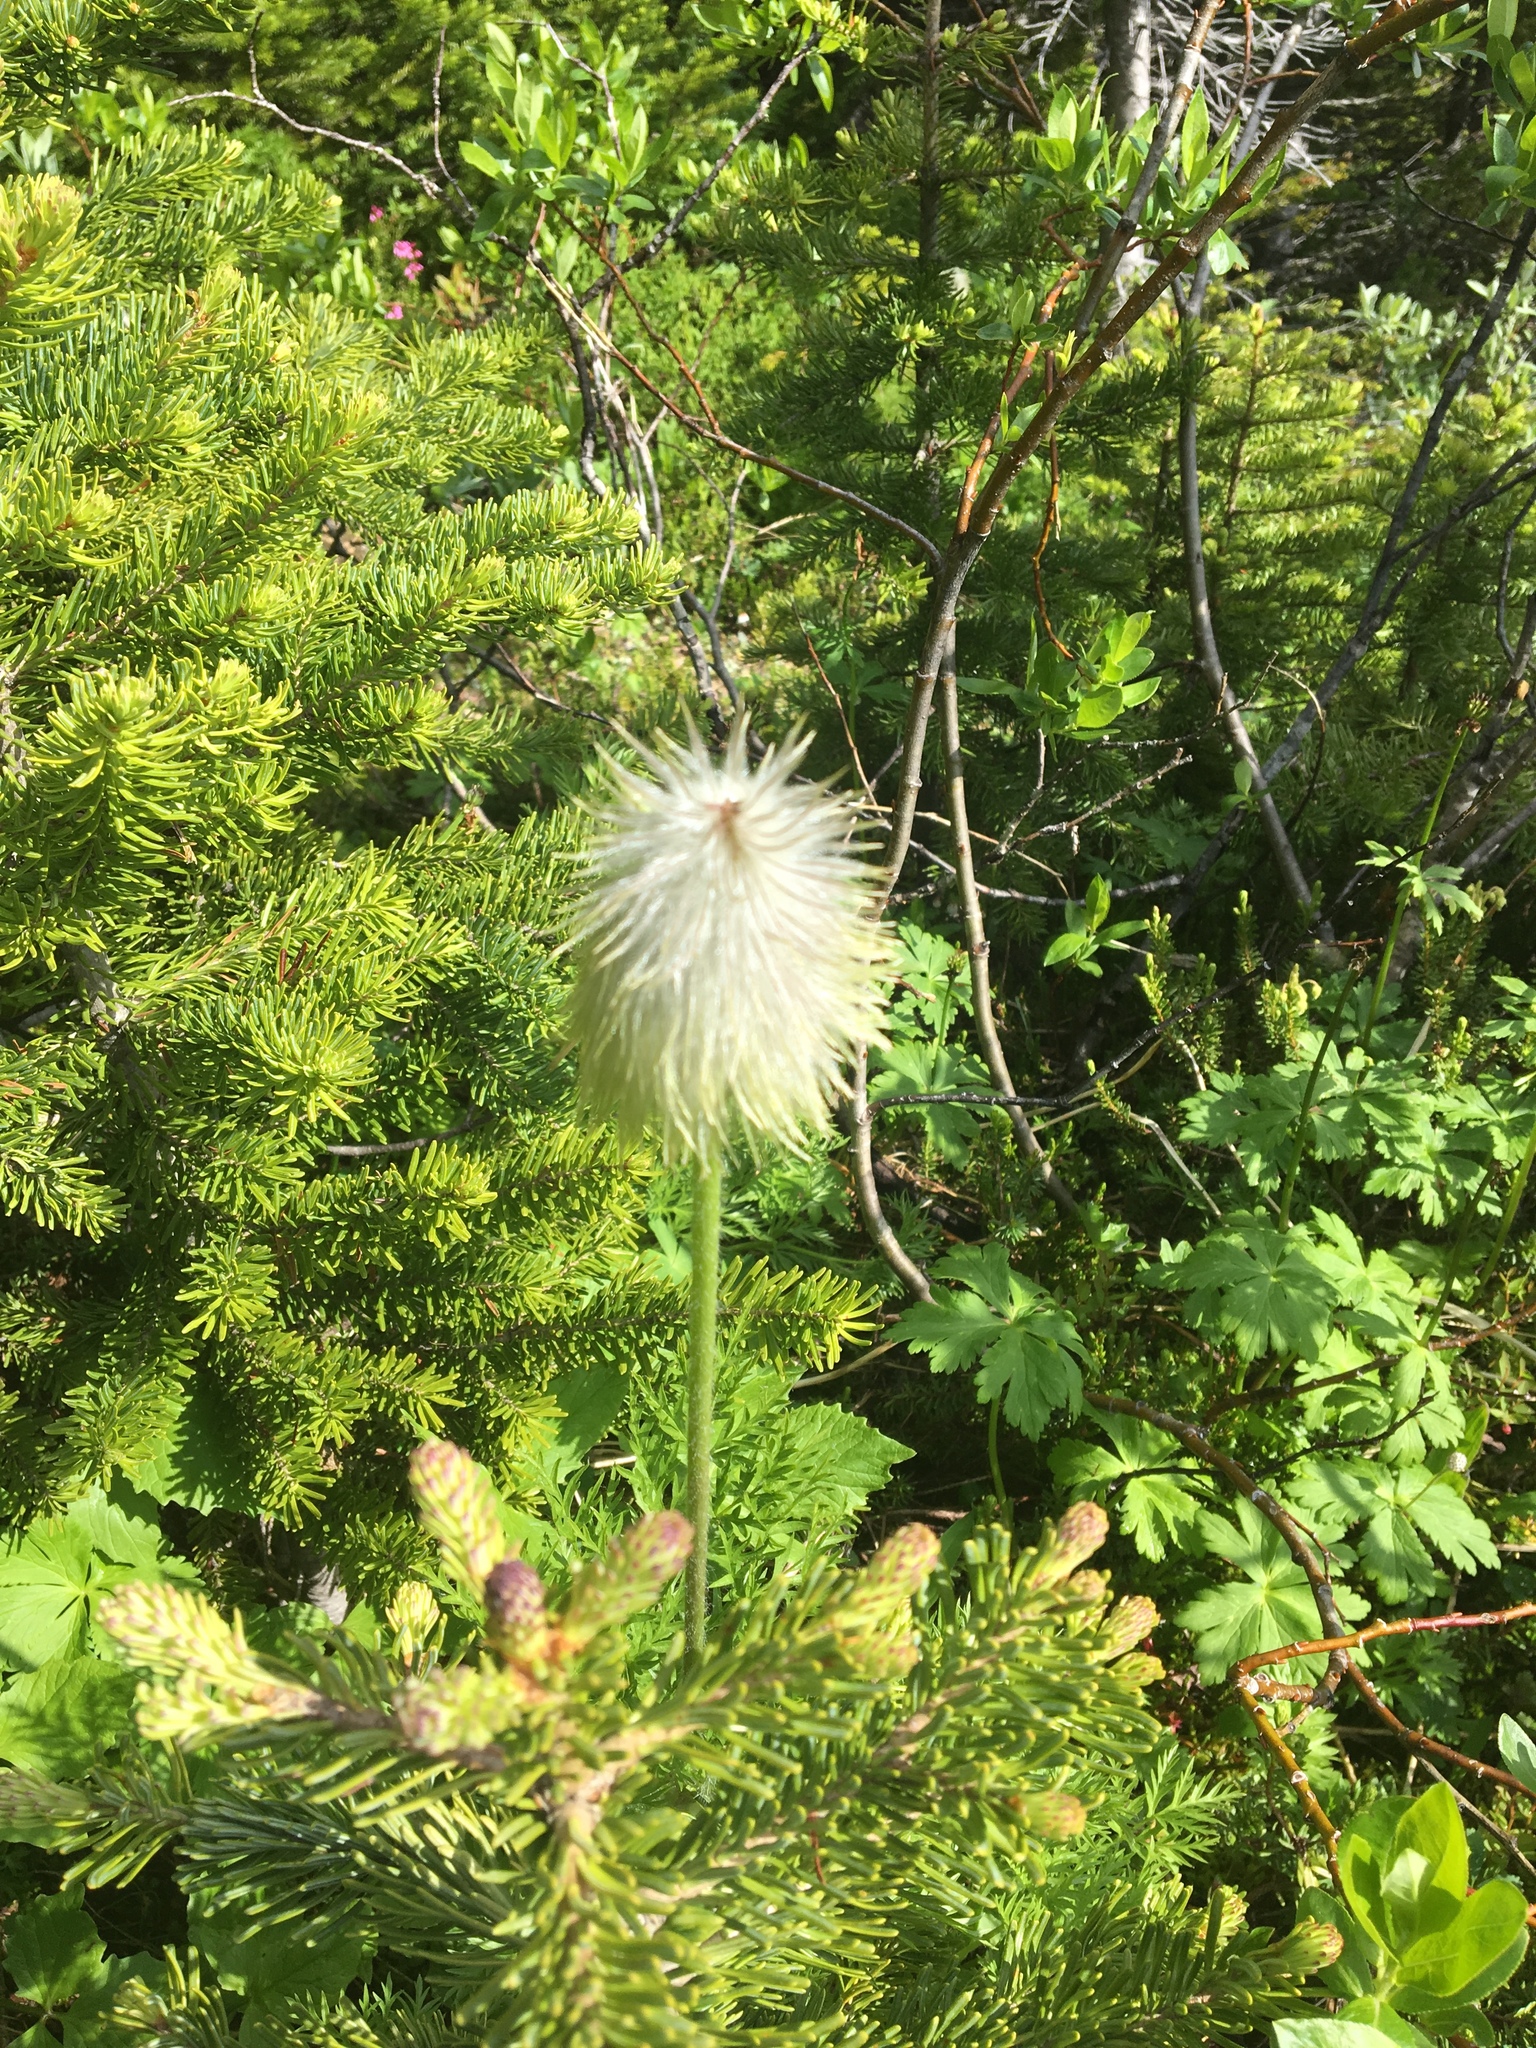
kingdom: Plantae
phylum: Tracheophyta
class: Magnoliopsida
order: Ranunculales
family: Ranunculaceae
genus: Pulsatilla
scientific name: Pulsatilla occidentalis
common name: Mountain pasqueflower
